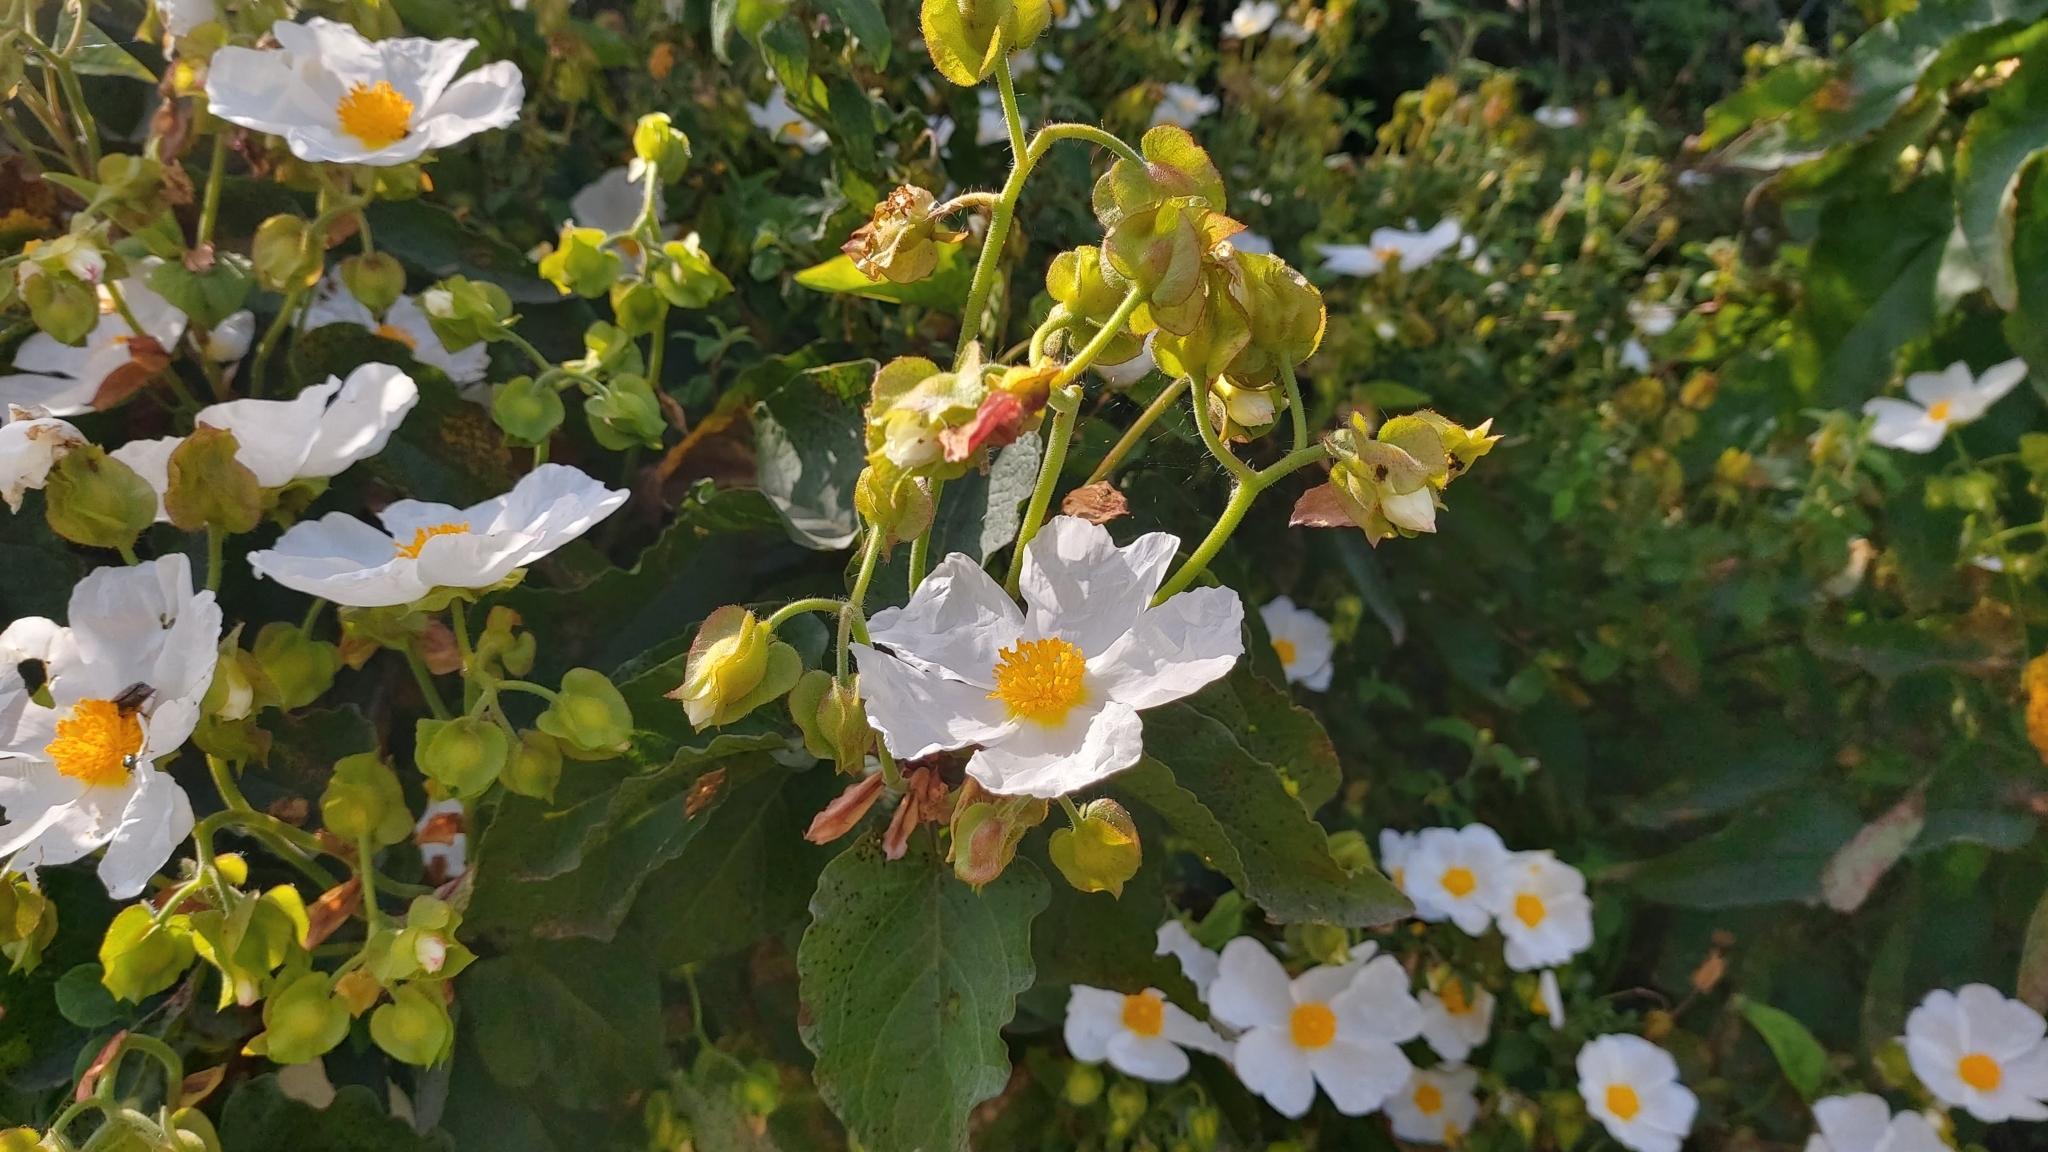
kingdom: Plantae
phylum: Tracheophyta
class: Magnoliopsida
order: Malvales
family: Cistaceae
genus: Cistus
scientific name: Cistus populifolius
